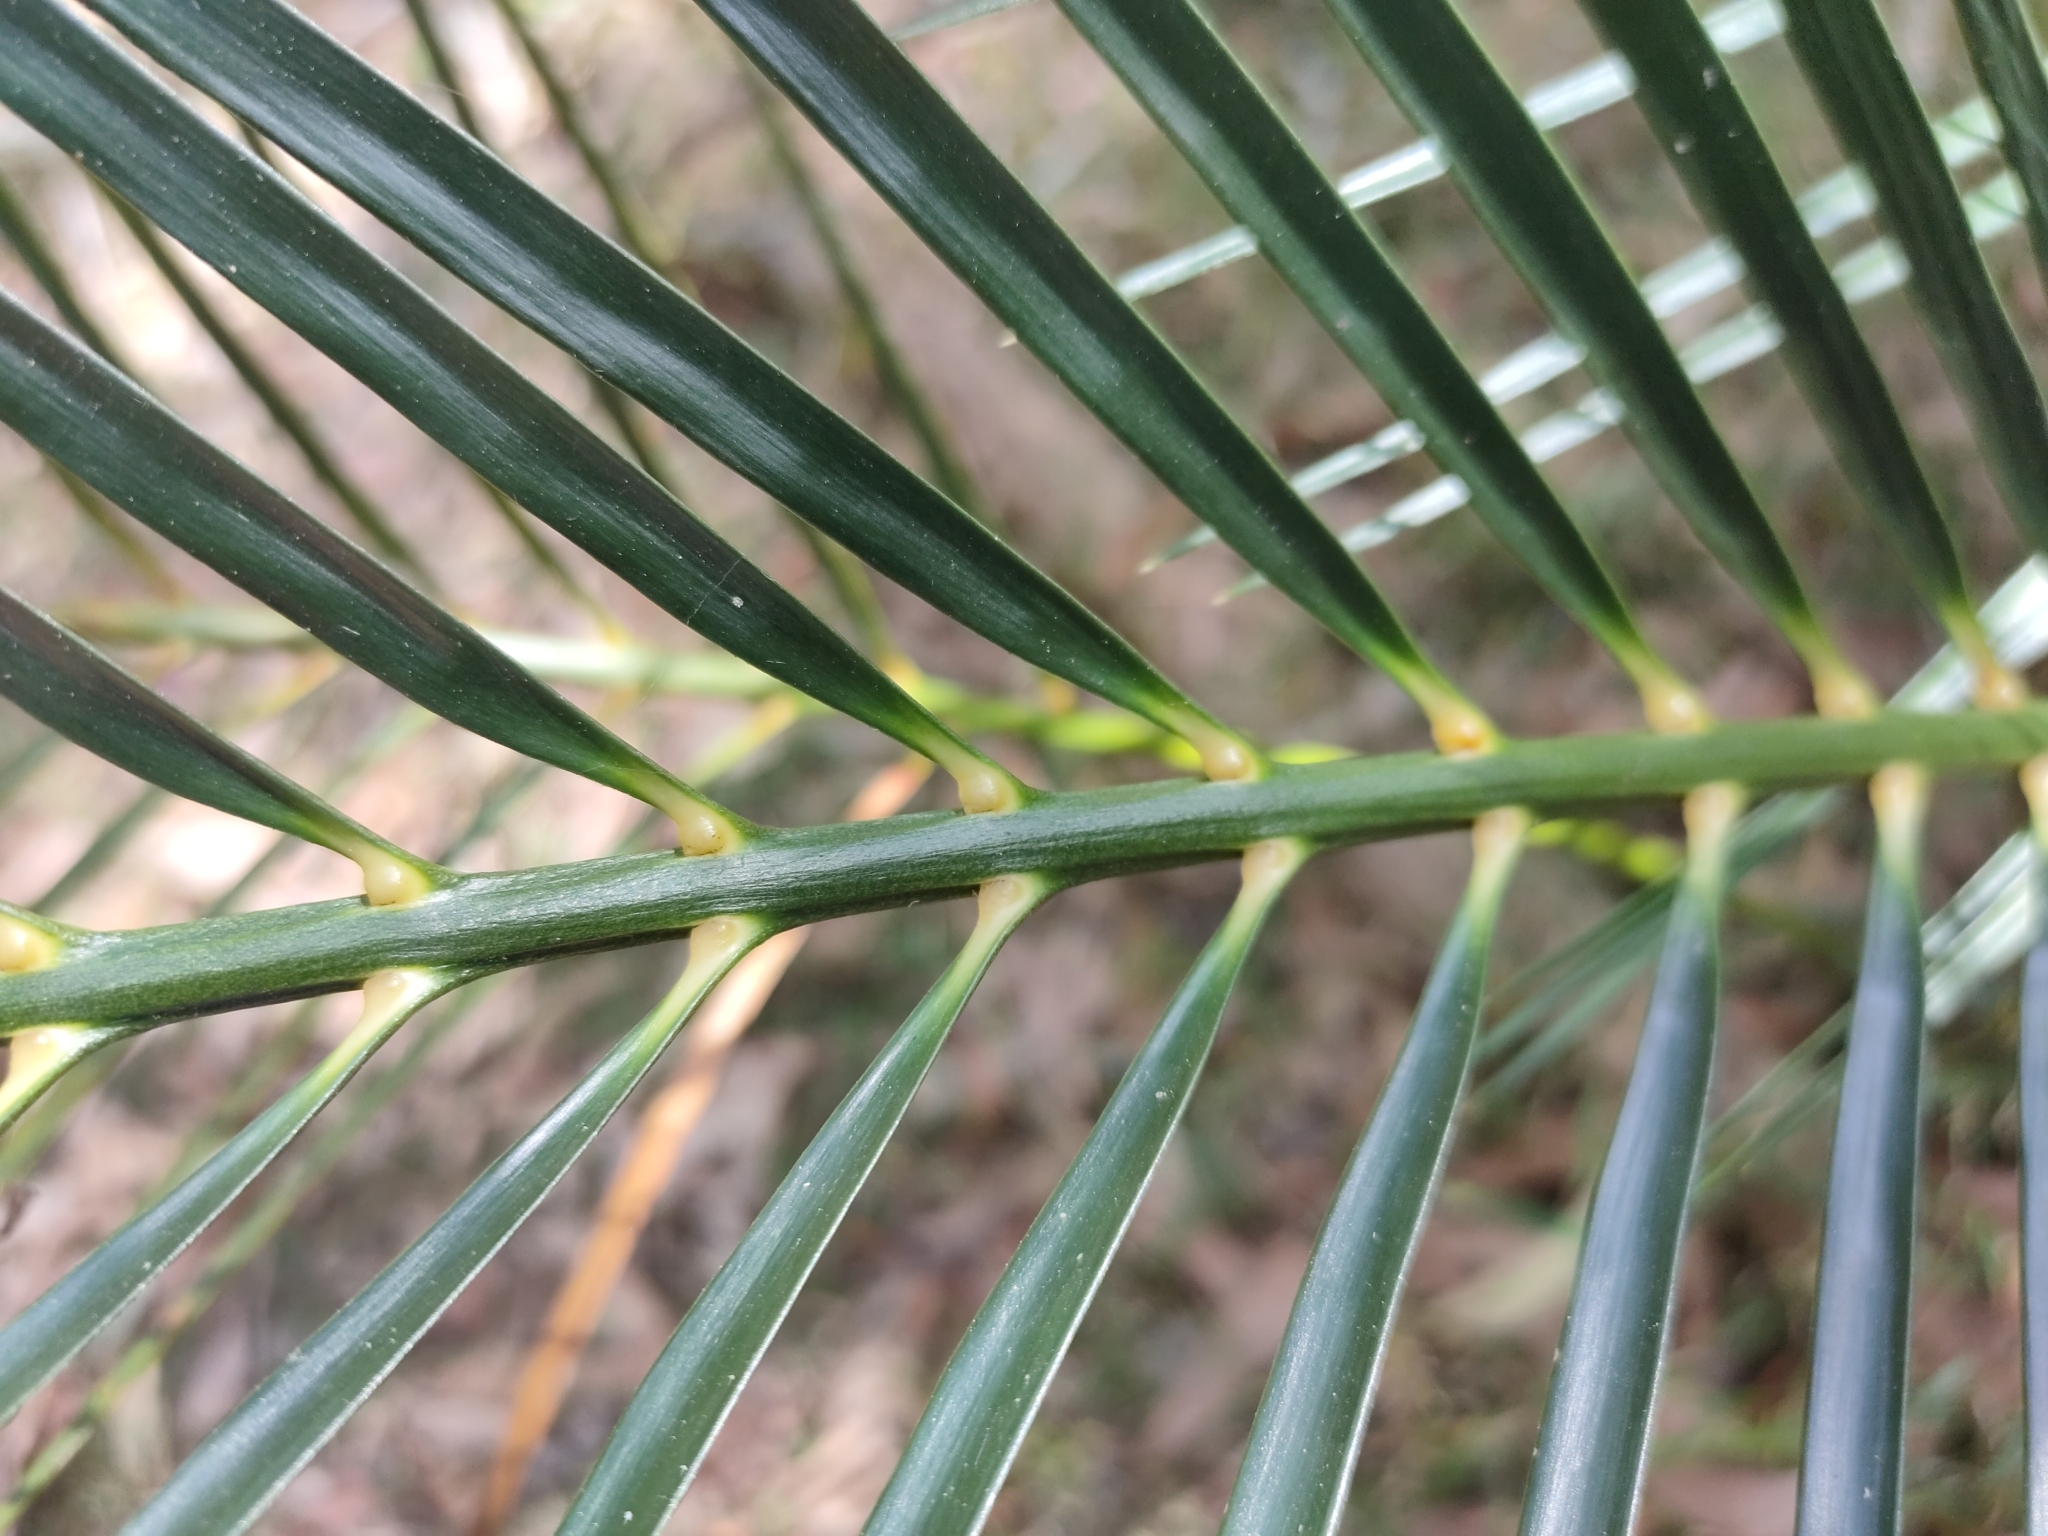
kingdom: Plantae
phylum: Tracheophyta
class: Cycadopsida
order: Cycadales
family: Zamiaceae
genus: Macrozamia
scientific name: Macrozamia mountperriensis
